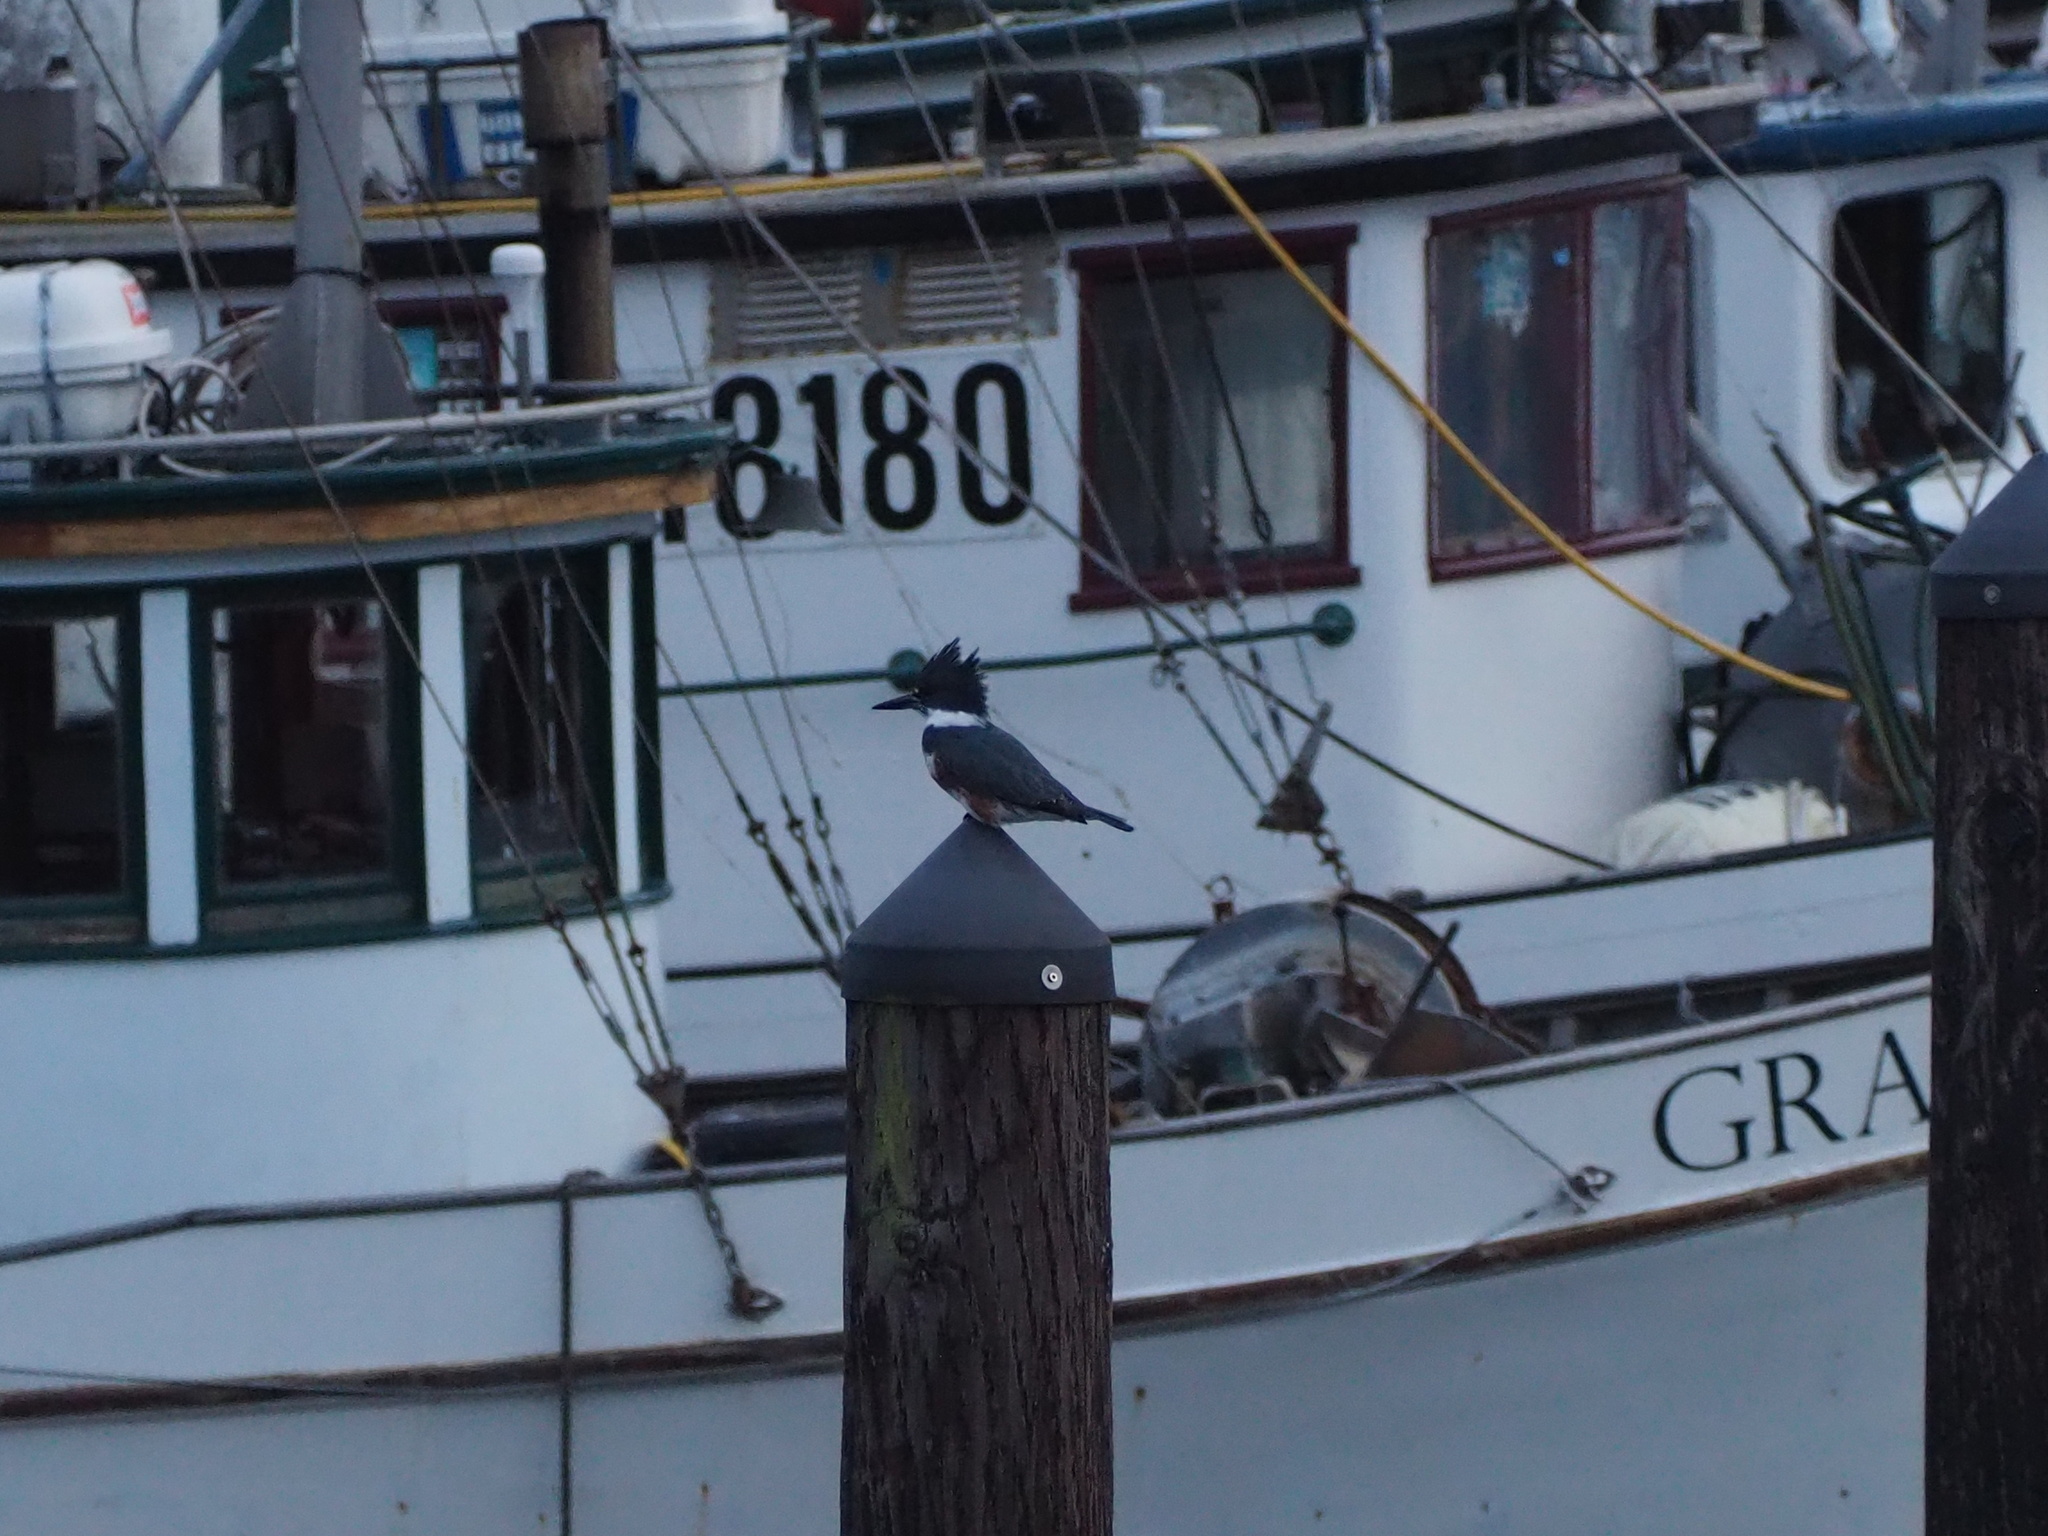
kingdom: Animalia
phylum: Chordata
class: Aves
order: Coraciiformes
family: Alcedinidae
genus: Megaceryle
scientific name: Megaceryle alcyon
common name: Belted kingfisher
